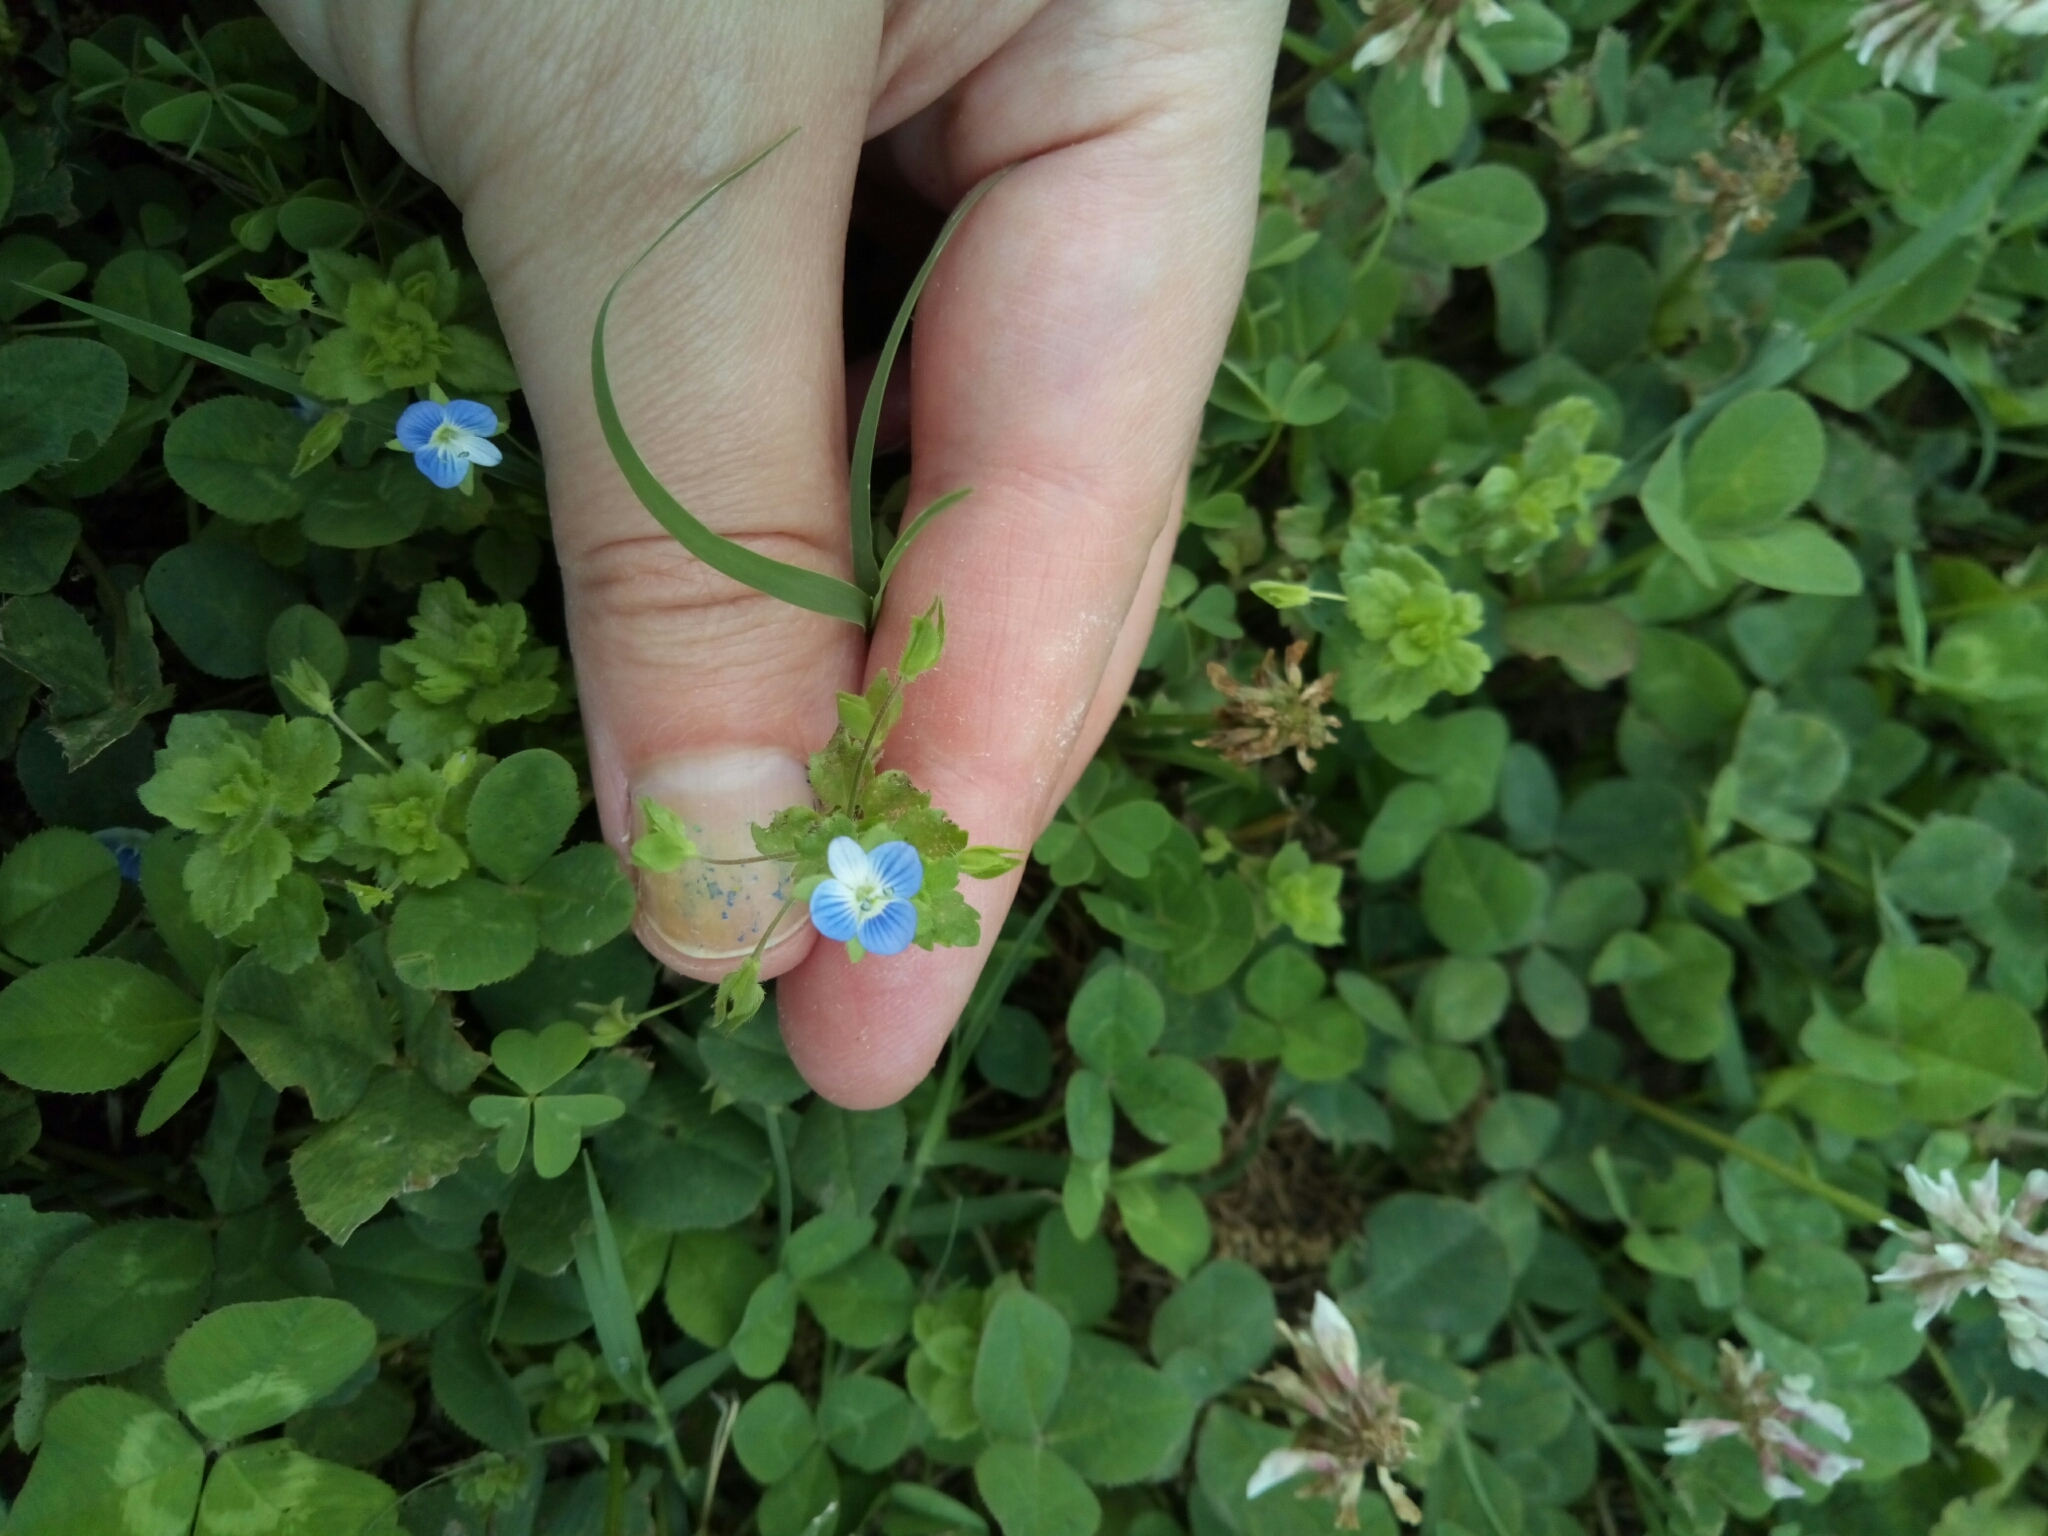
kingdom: Plantae
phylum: Tracheophyta
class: Magnoliopsida
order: Lamiales
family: Plantaginaceae
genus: Veronica
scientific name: Veronica persica
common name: Common field-speedwell
